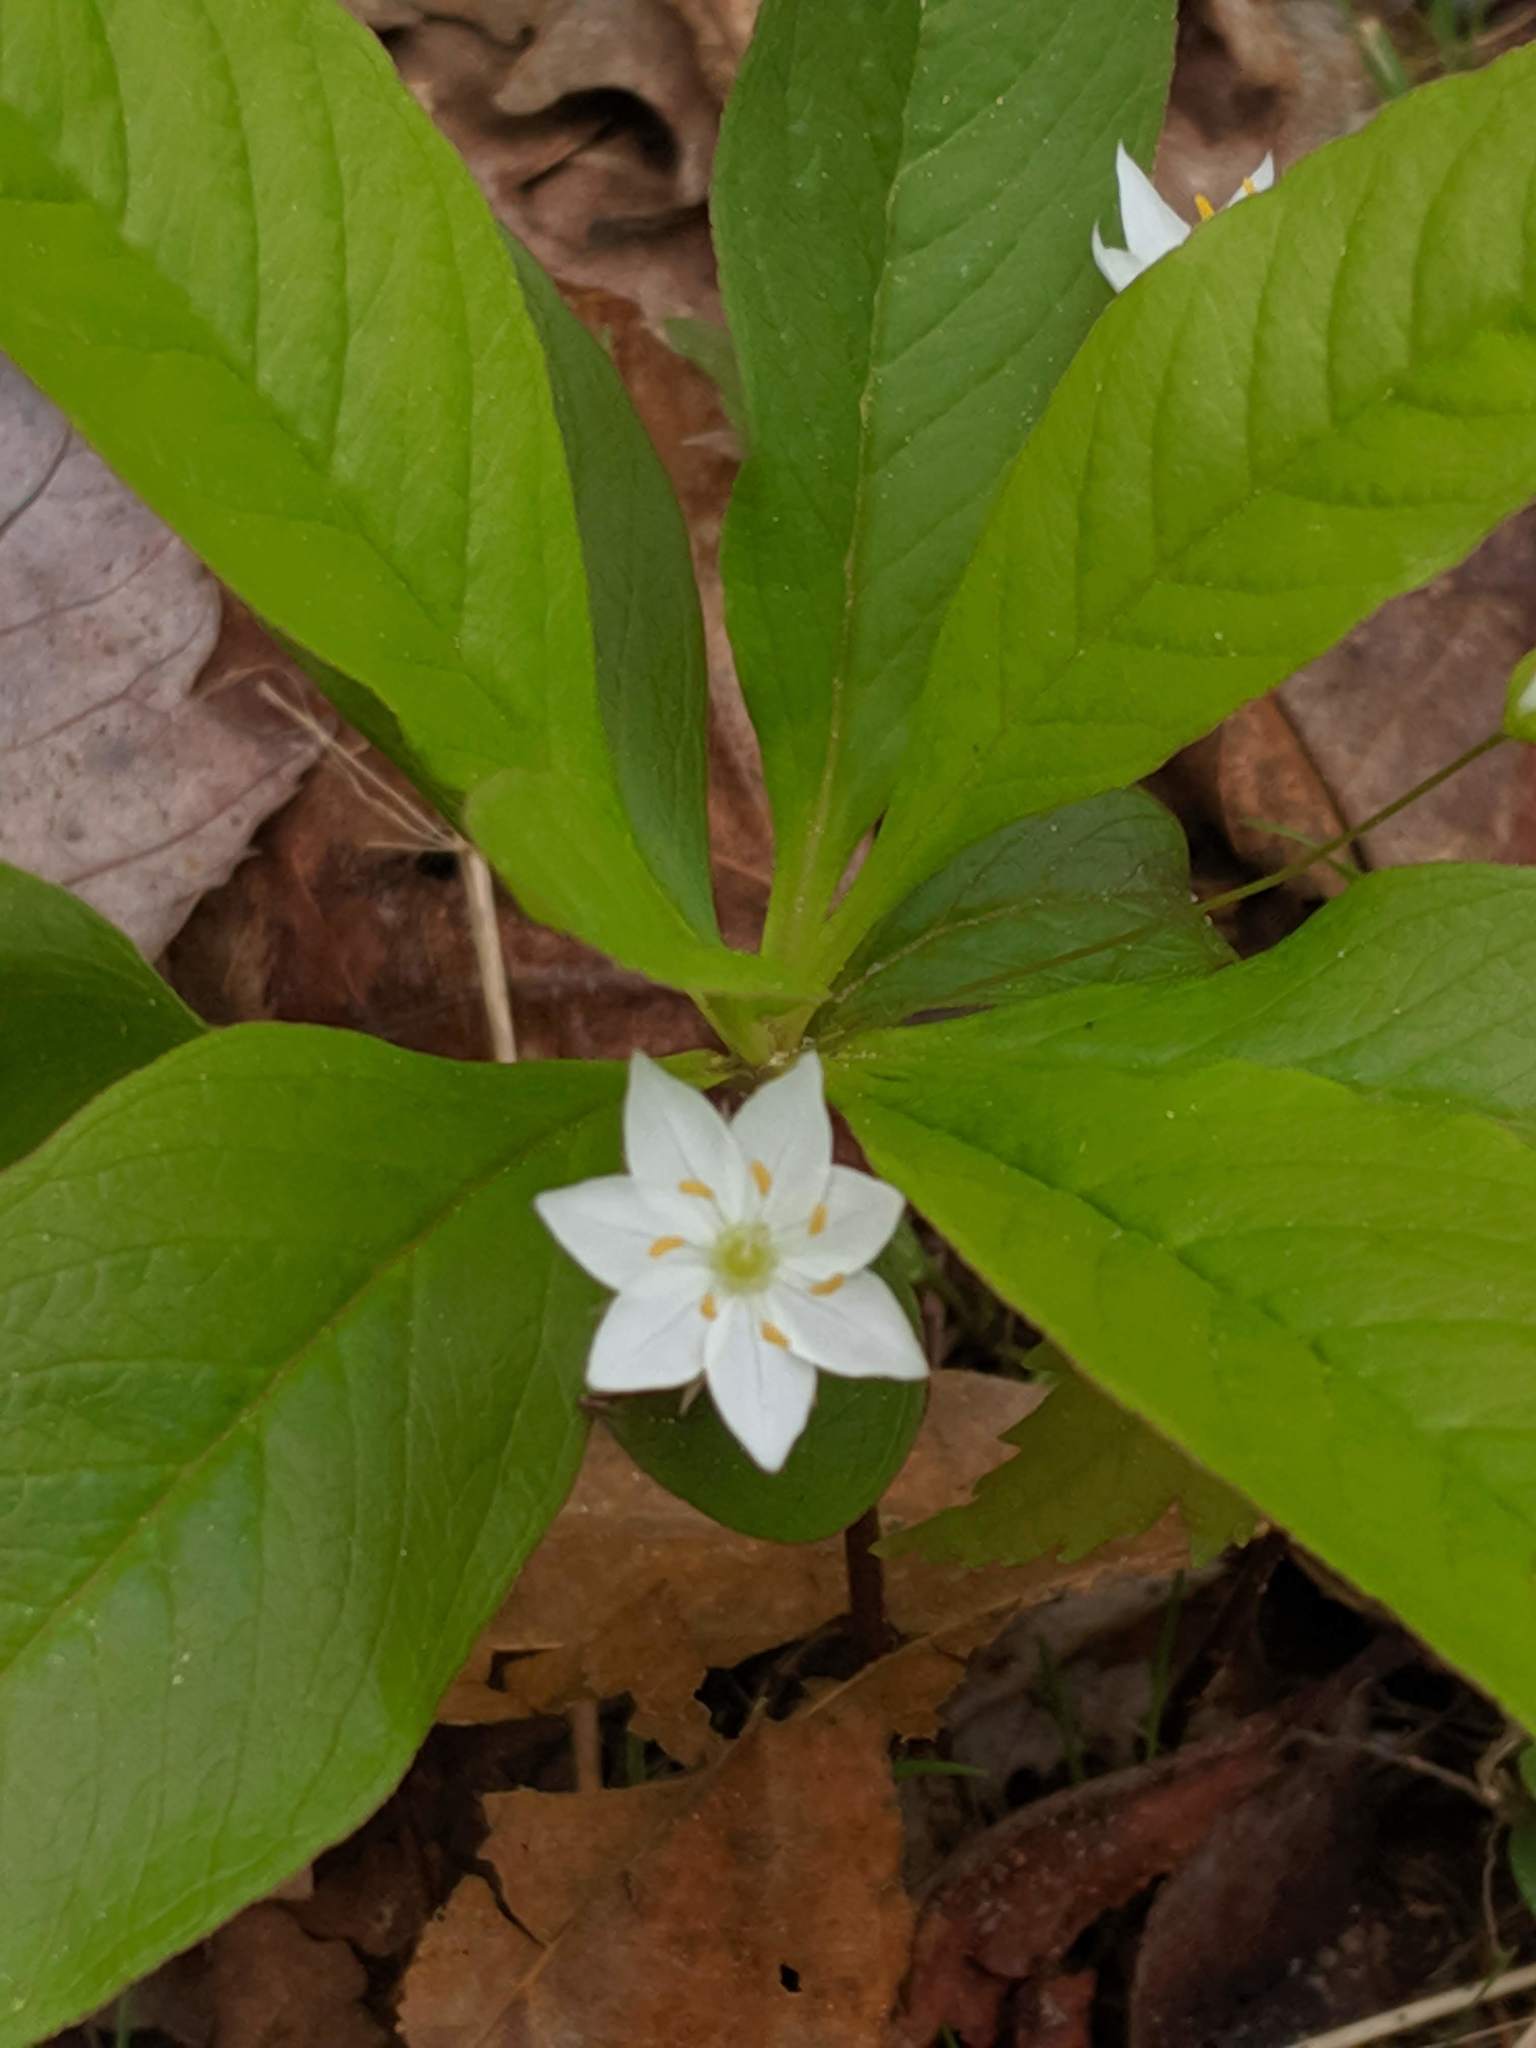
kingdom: Plantae
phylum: Tracheophyta
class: Magnoliopsida
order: Ericales
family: Primulaceae
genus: Lysimachia
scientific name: Lysimachia borealis
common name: American starflower
